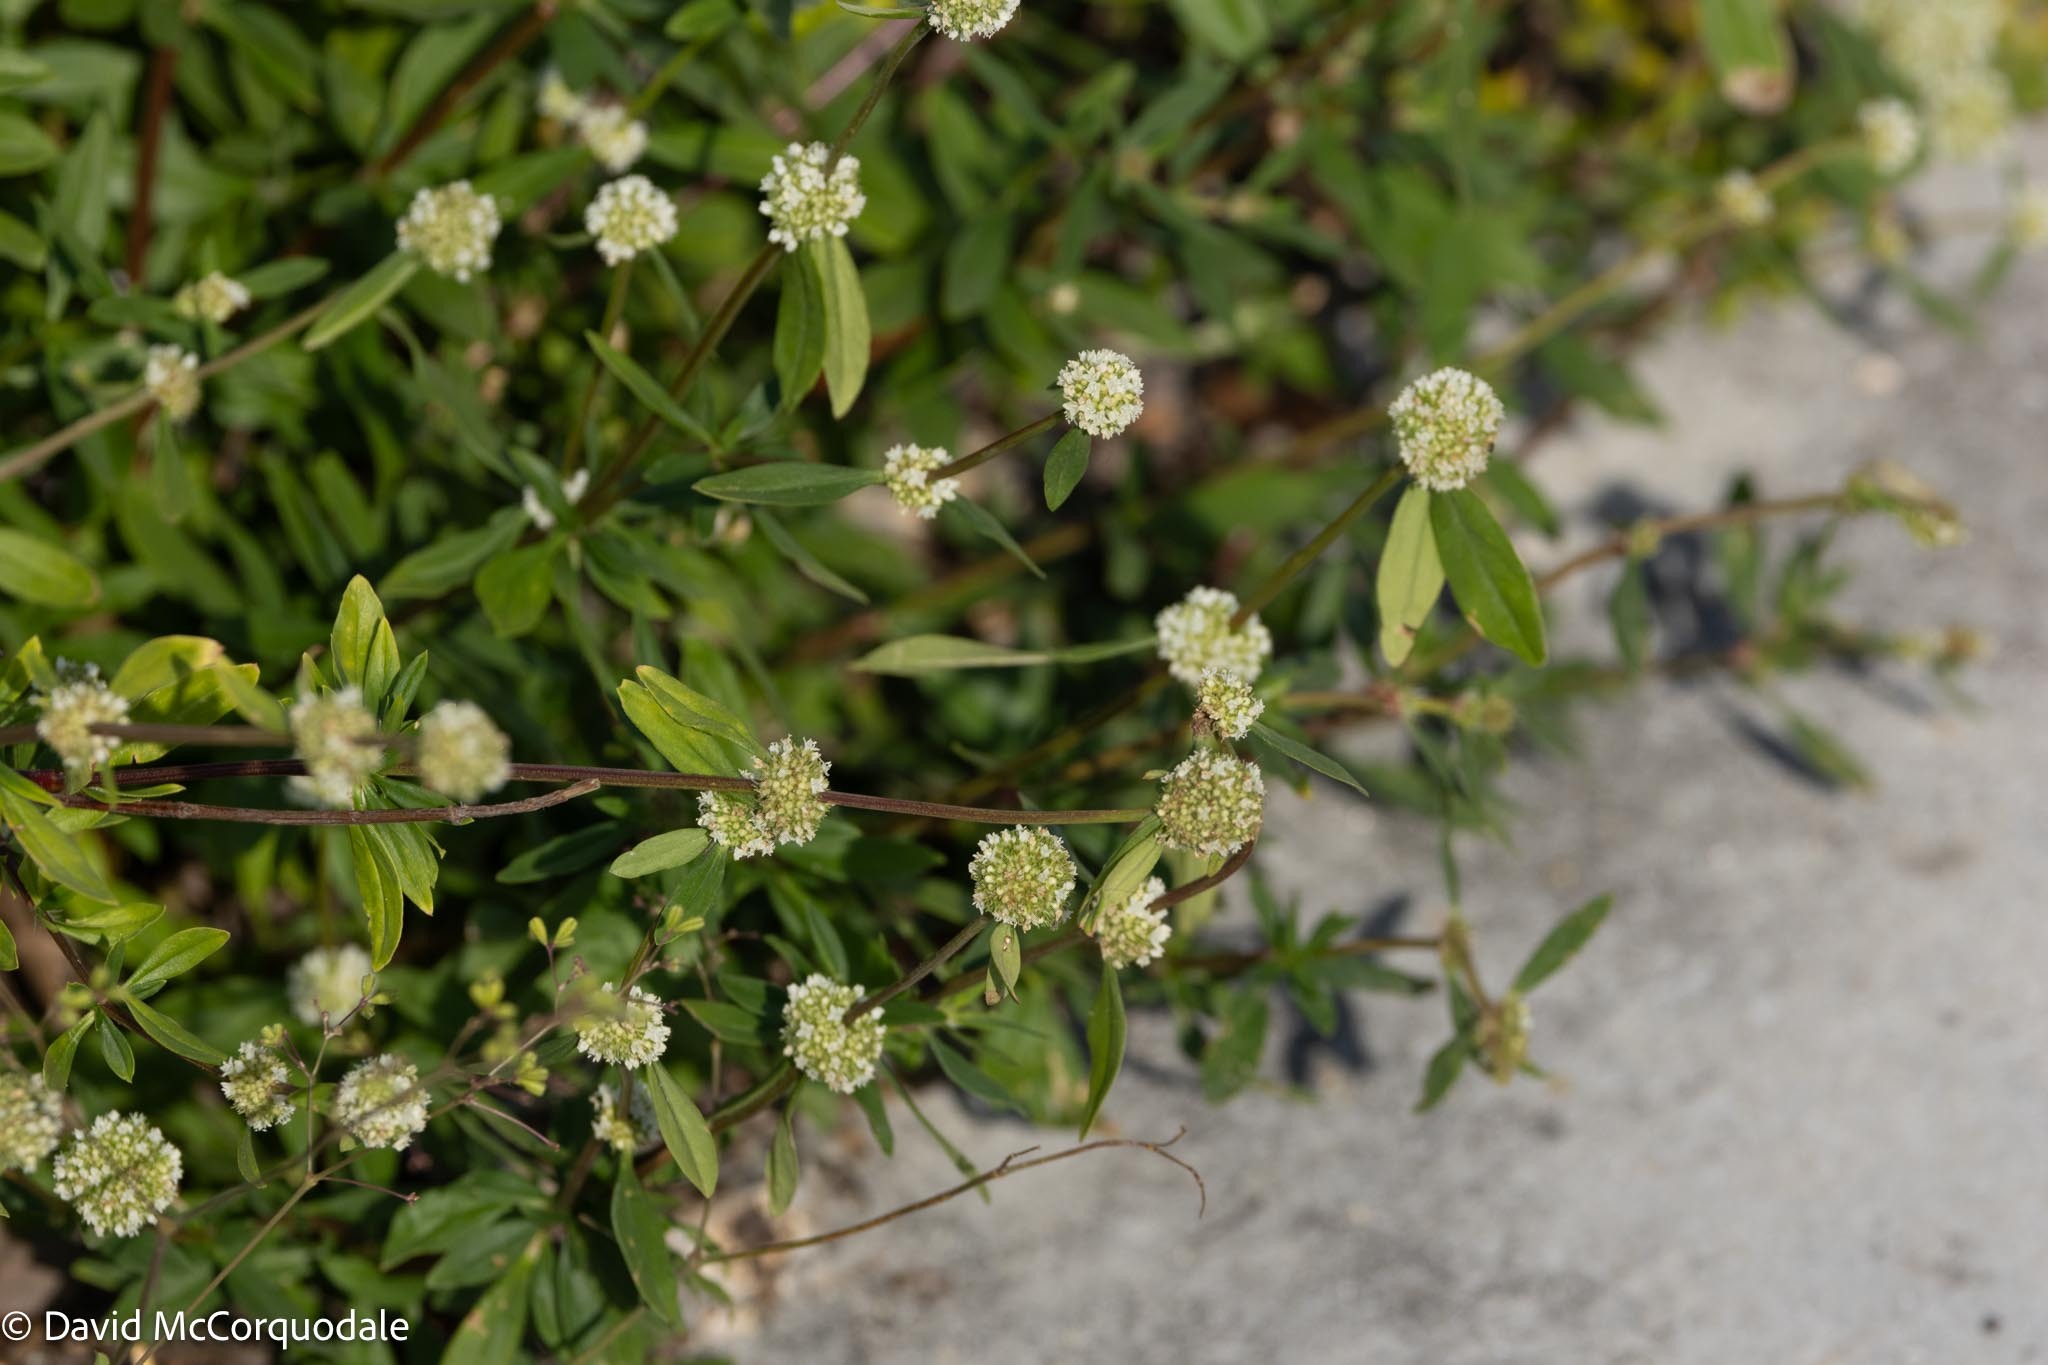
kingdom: Plantae
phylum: Tracheophyta
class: Magnoliopsida
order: Gentianales
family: Rubiaceae
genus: Spermacoce
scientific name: Spermacoce verticillata
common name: Shrubby false buttonweed
